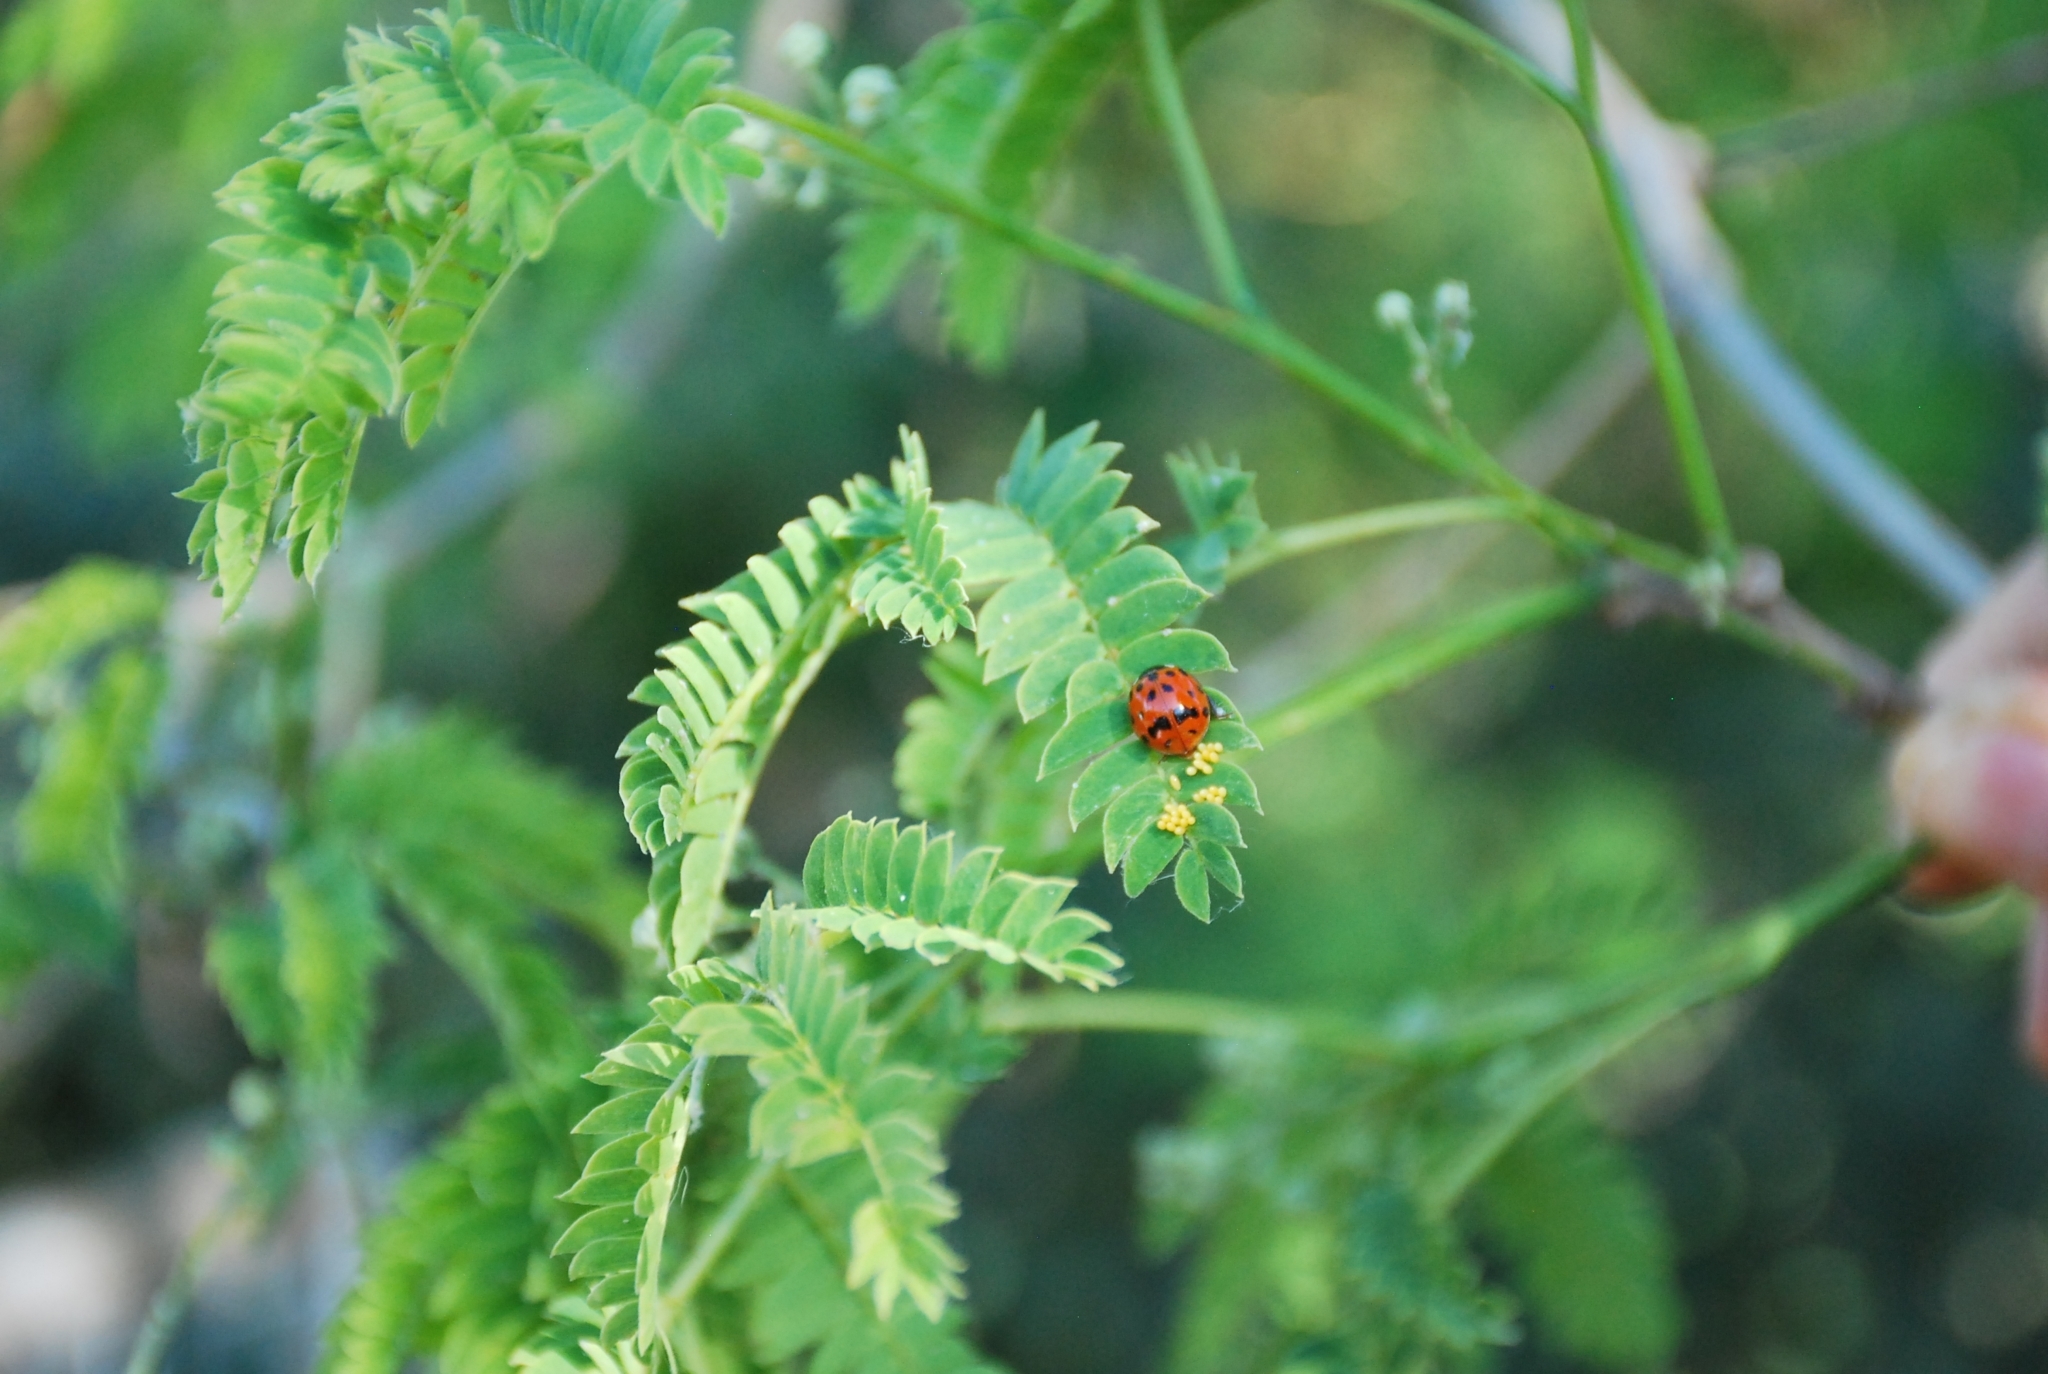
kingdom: Animalia
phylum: Arthropoda
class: Insecta
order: Coleoptera
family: Coccinellidae
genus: Harmonia
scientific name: Harmonia axyridis
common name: Harlequin ladybird
